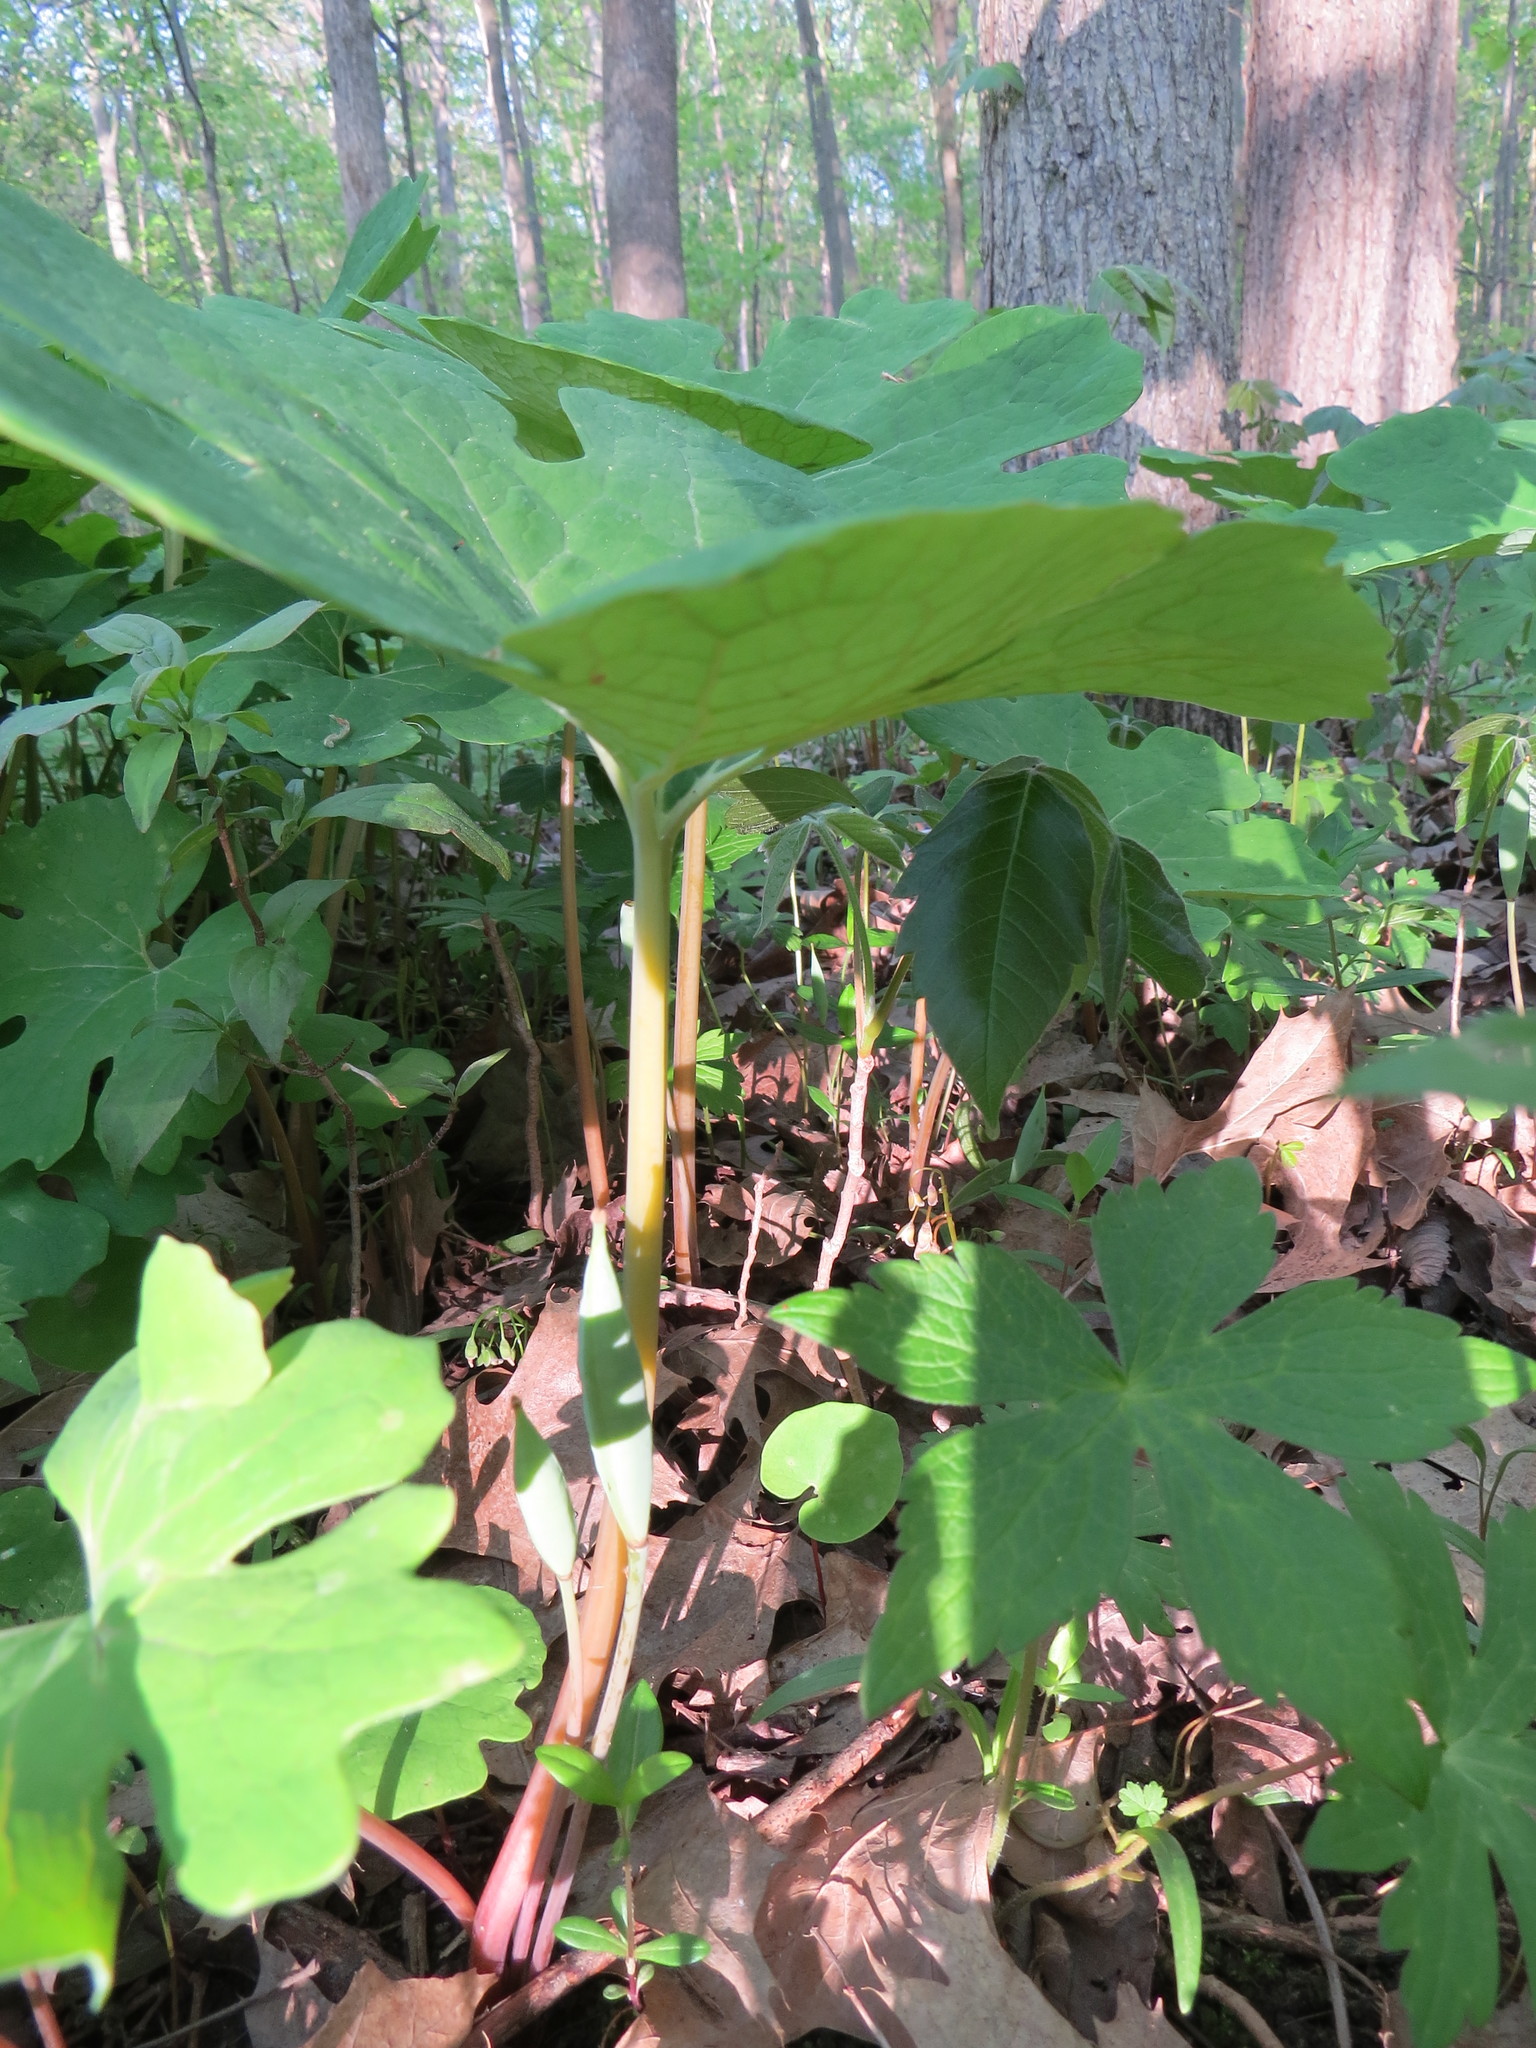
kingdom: Plantae
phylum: Tracheophyta
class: Magnoliopsida
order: Ranunculales
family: Papaveraceae
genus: Sanguinaria
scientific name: Sanguinaria canadensis
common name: Bloodroot
